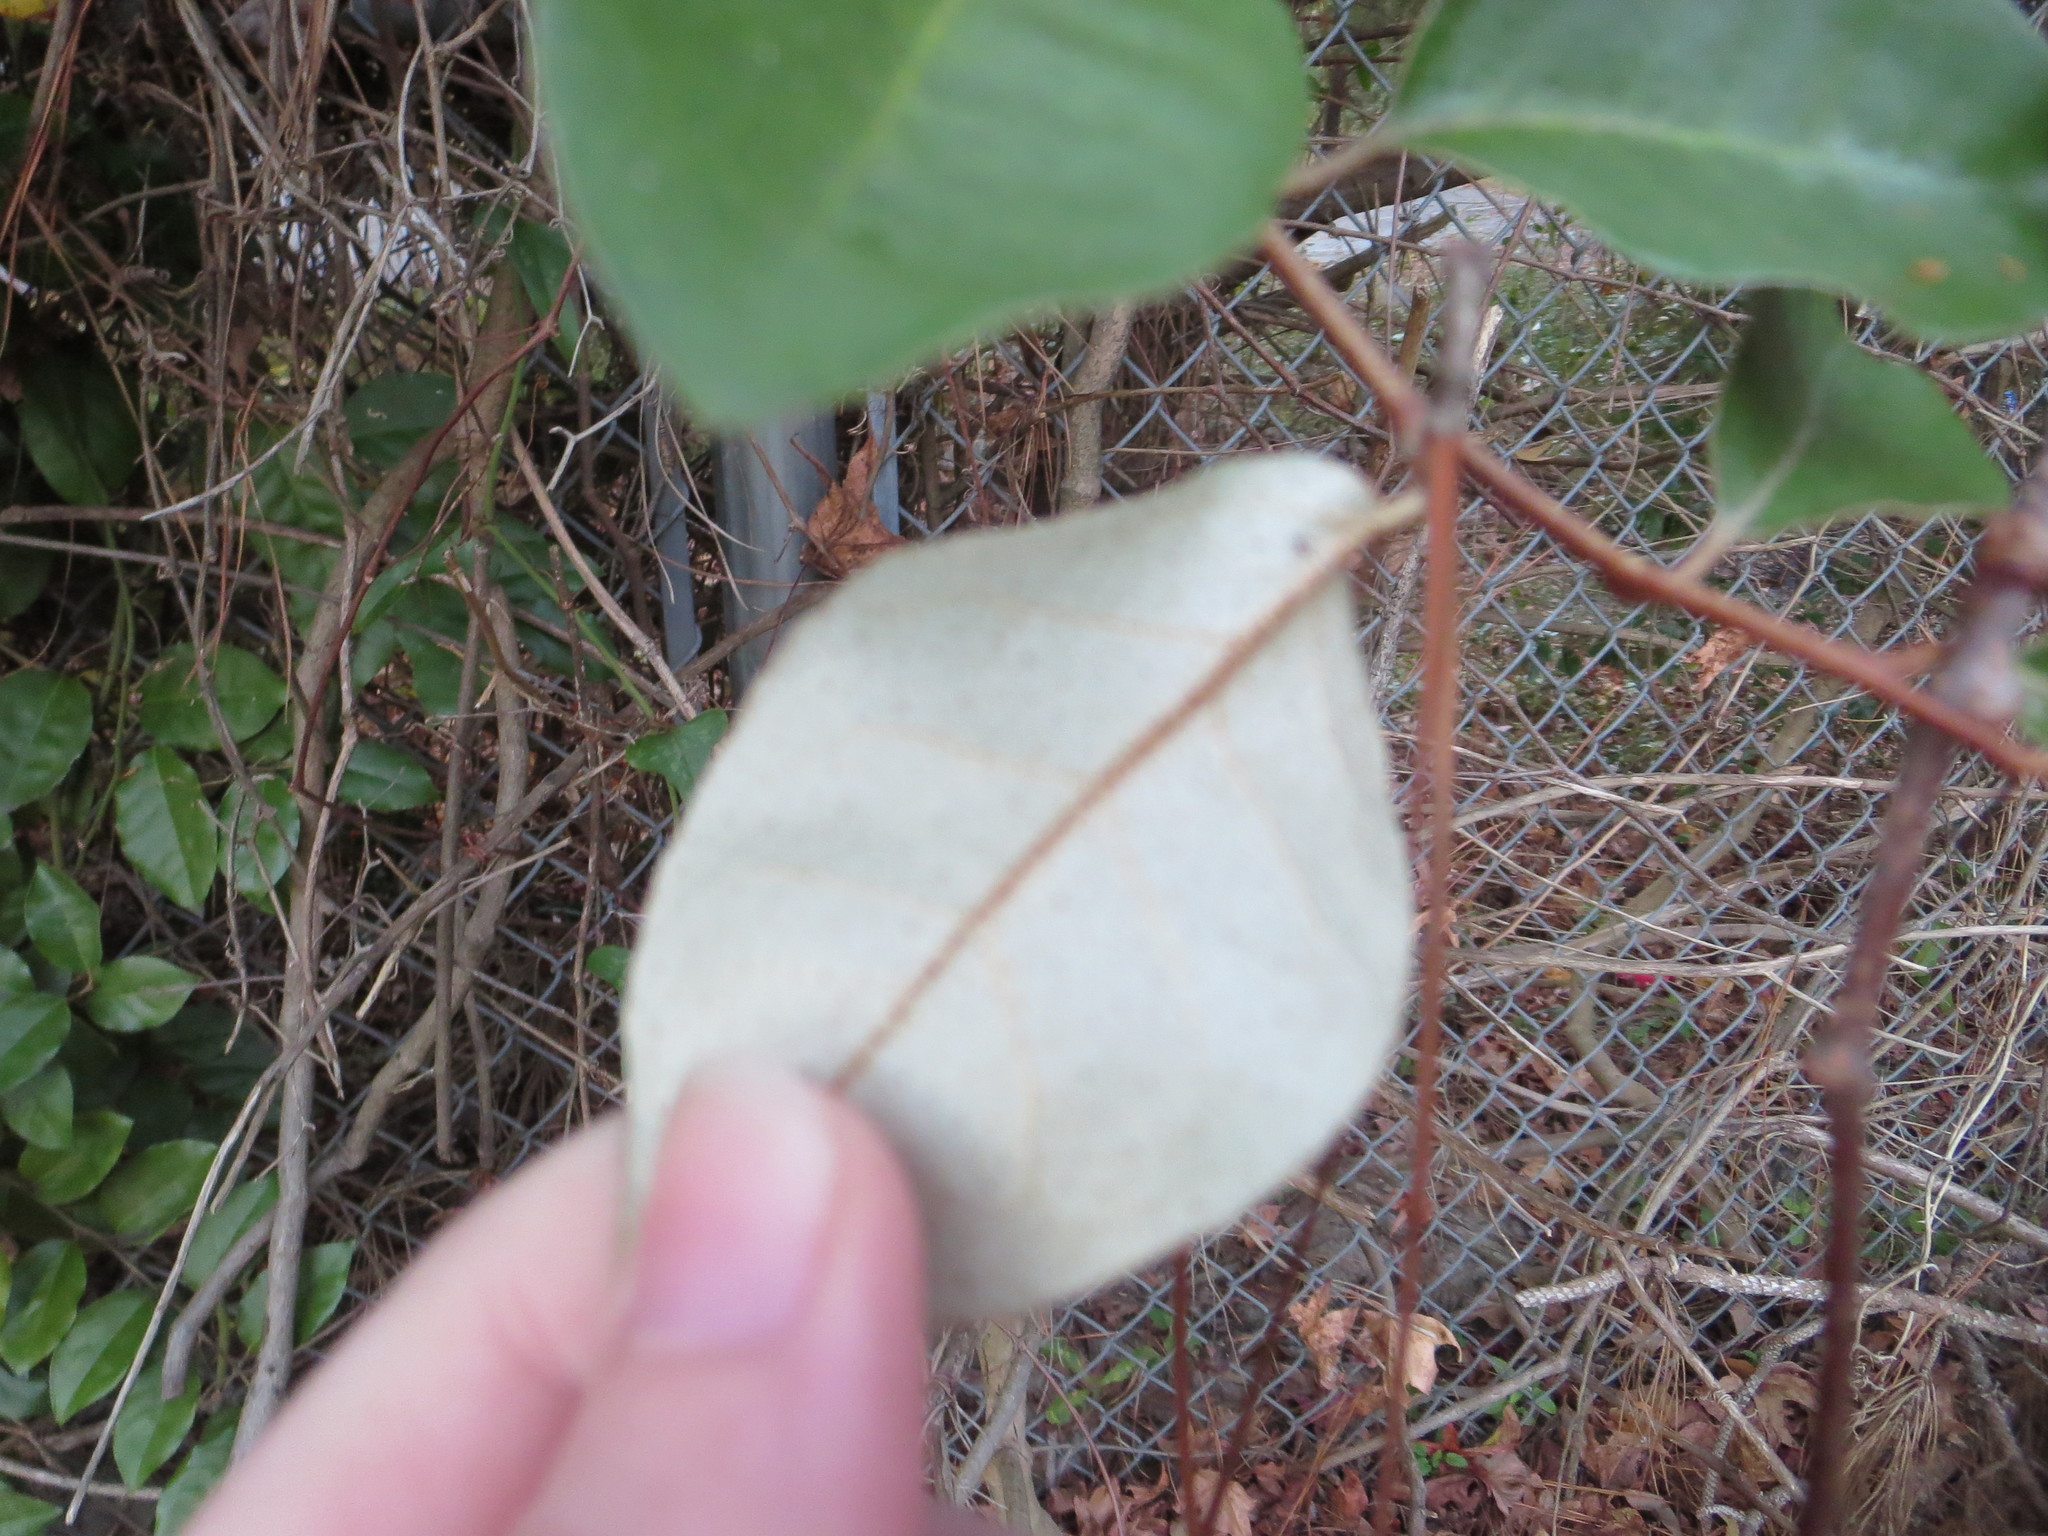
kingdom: Plantae
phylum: Tracheophyta
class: Magnoliopsida
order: Rosales
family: Elaeagnaceae
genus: Elaeagnus
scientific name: Elaeagnus pungens
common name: Spiny oleaster
